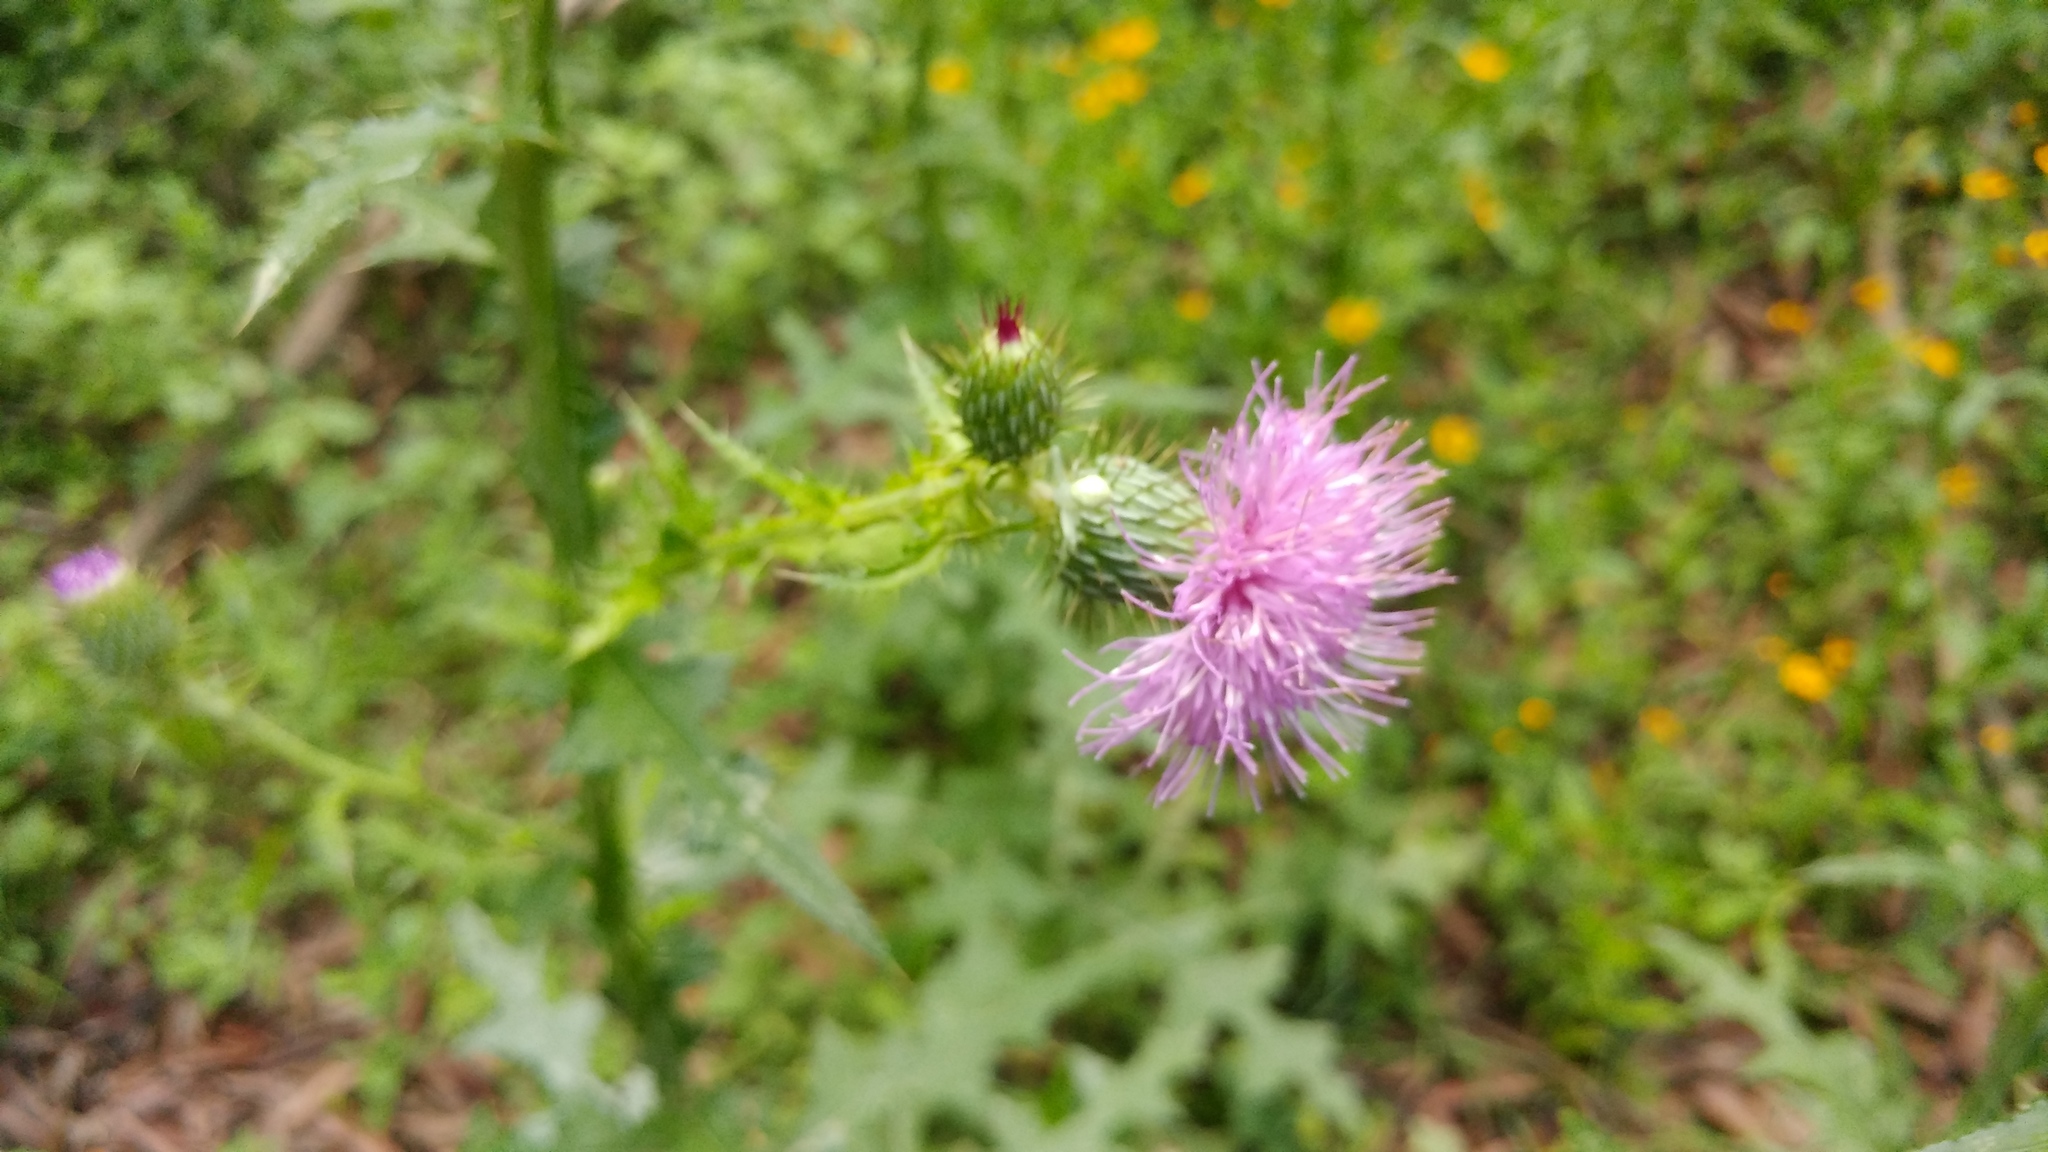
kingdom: Plantae
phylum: Tracheophyta
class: Magnoliopsida
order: Asterales
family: Asteraceae
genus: Cirsium
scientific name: Cirsium texanum
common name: Texas purple thistle
